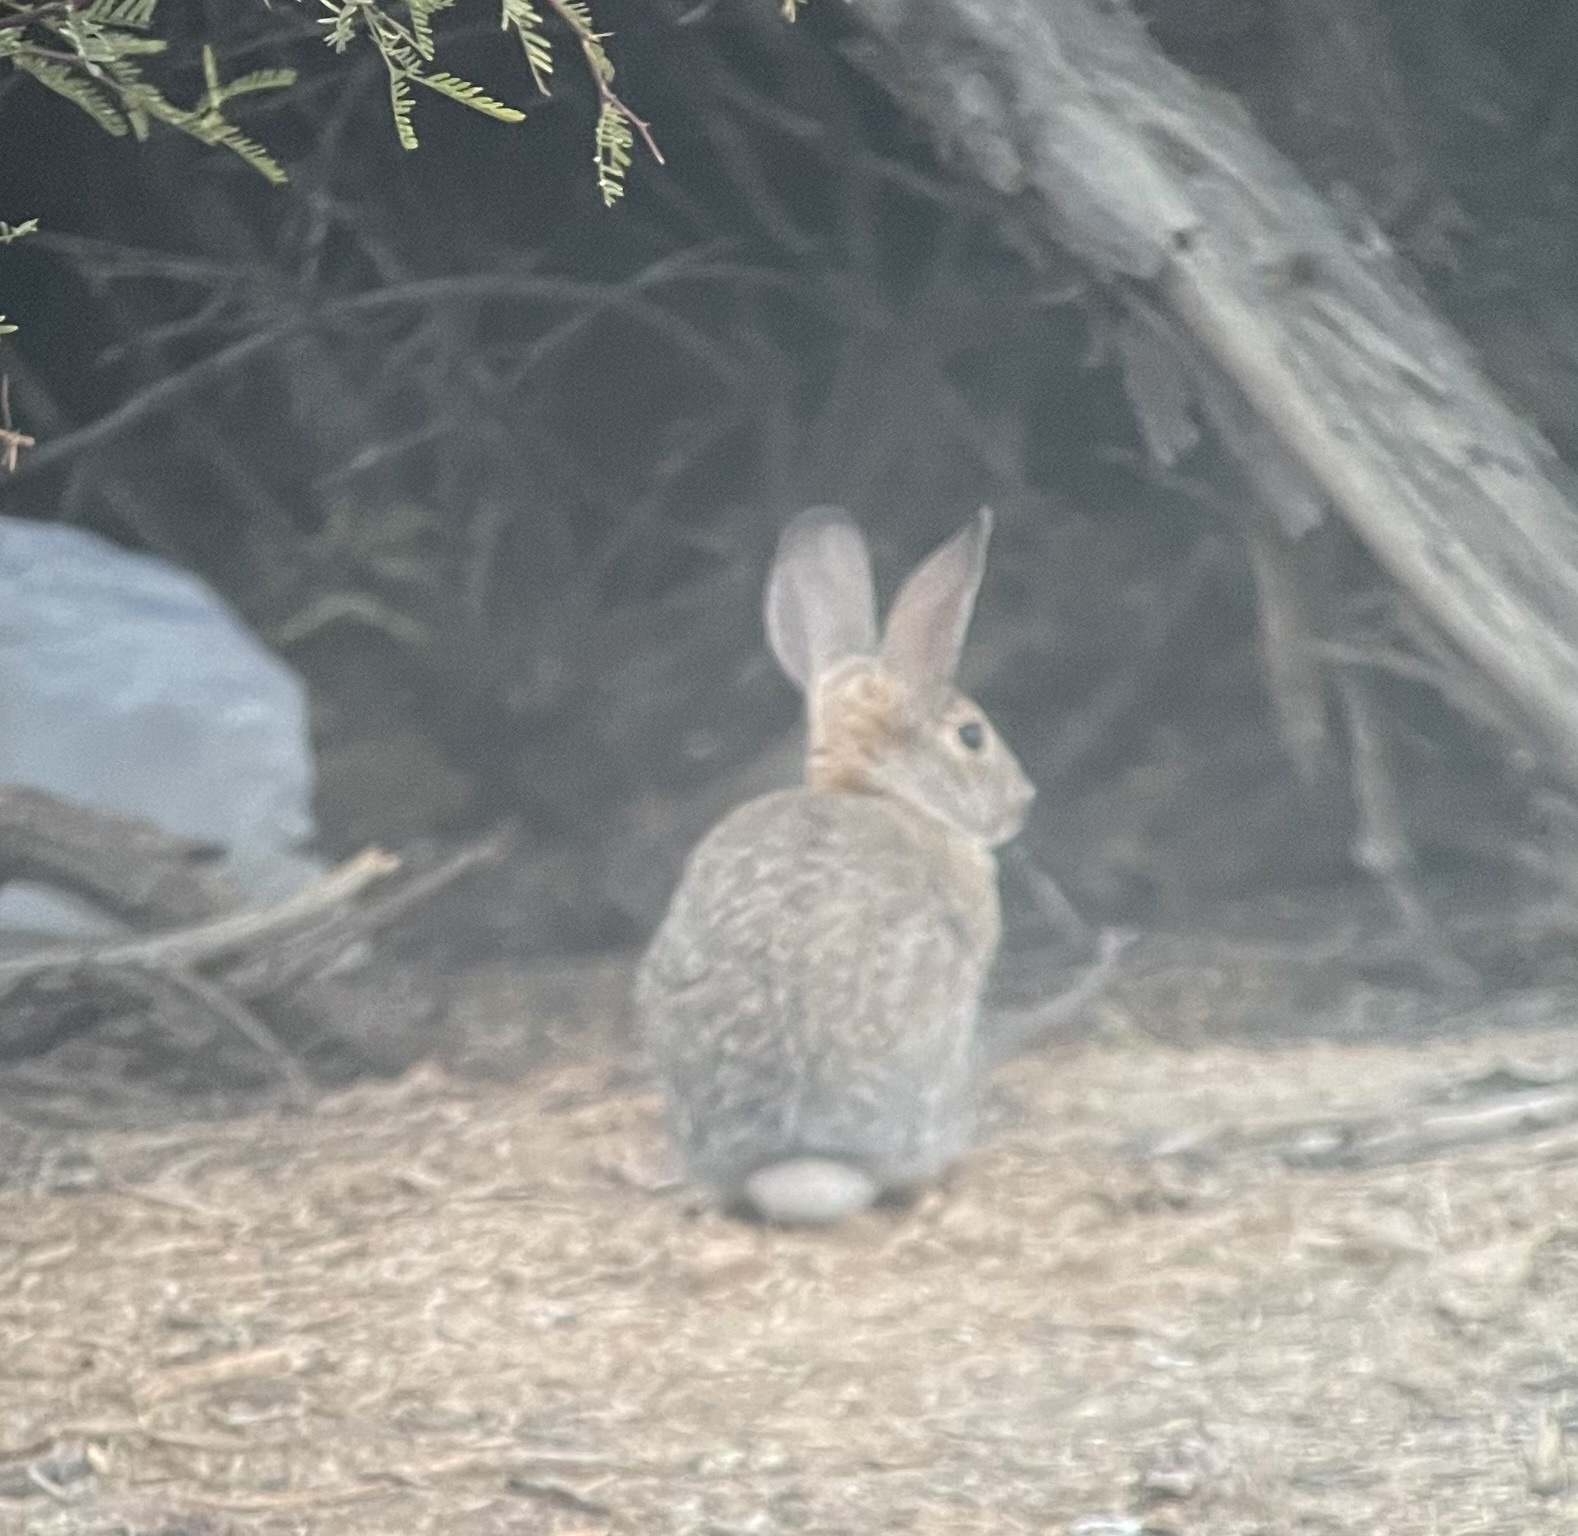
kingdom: Animalia
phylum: Chordata
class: Mammalia
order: Lagomorpha
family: Leporidae
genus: Sylvilagus
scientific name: Sylvilagus audubonii
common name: Desert cottontail
